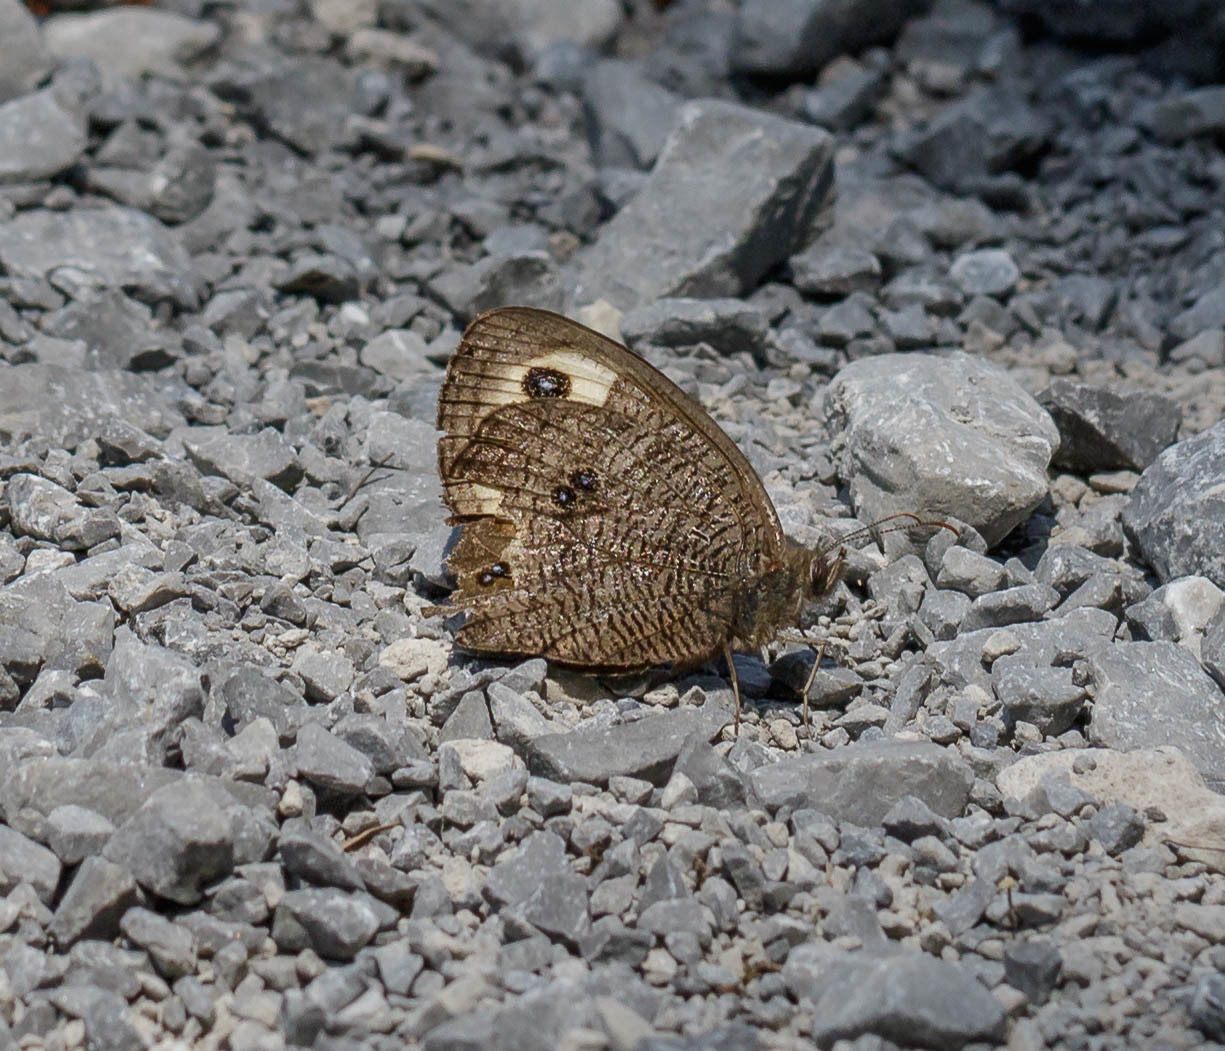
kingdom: Animalia
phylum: Arthropoda
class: Insecta
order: Lepidoptera
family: Nymphalidae
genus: Cercyonis
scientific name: Cercyonis pegala
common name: Common wood-nymph
